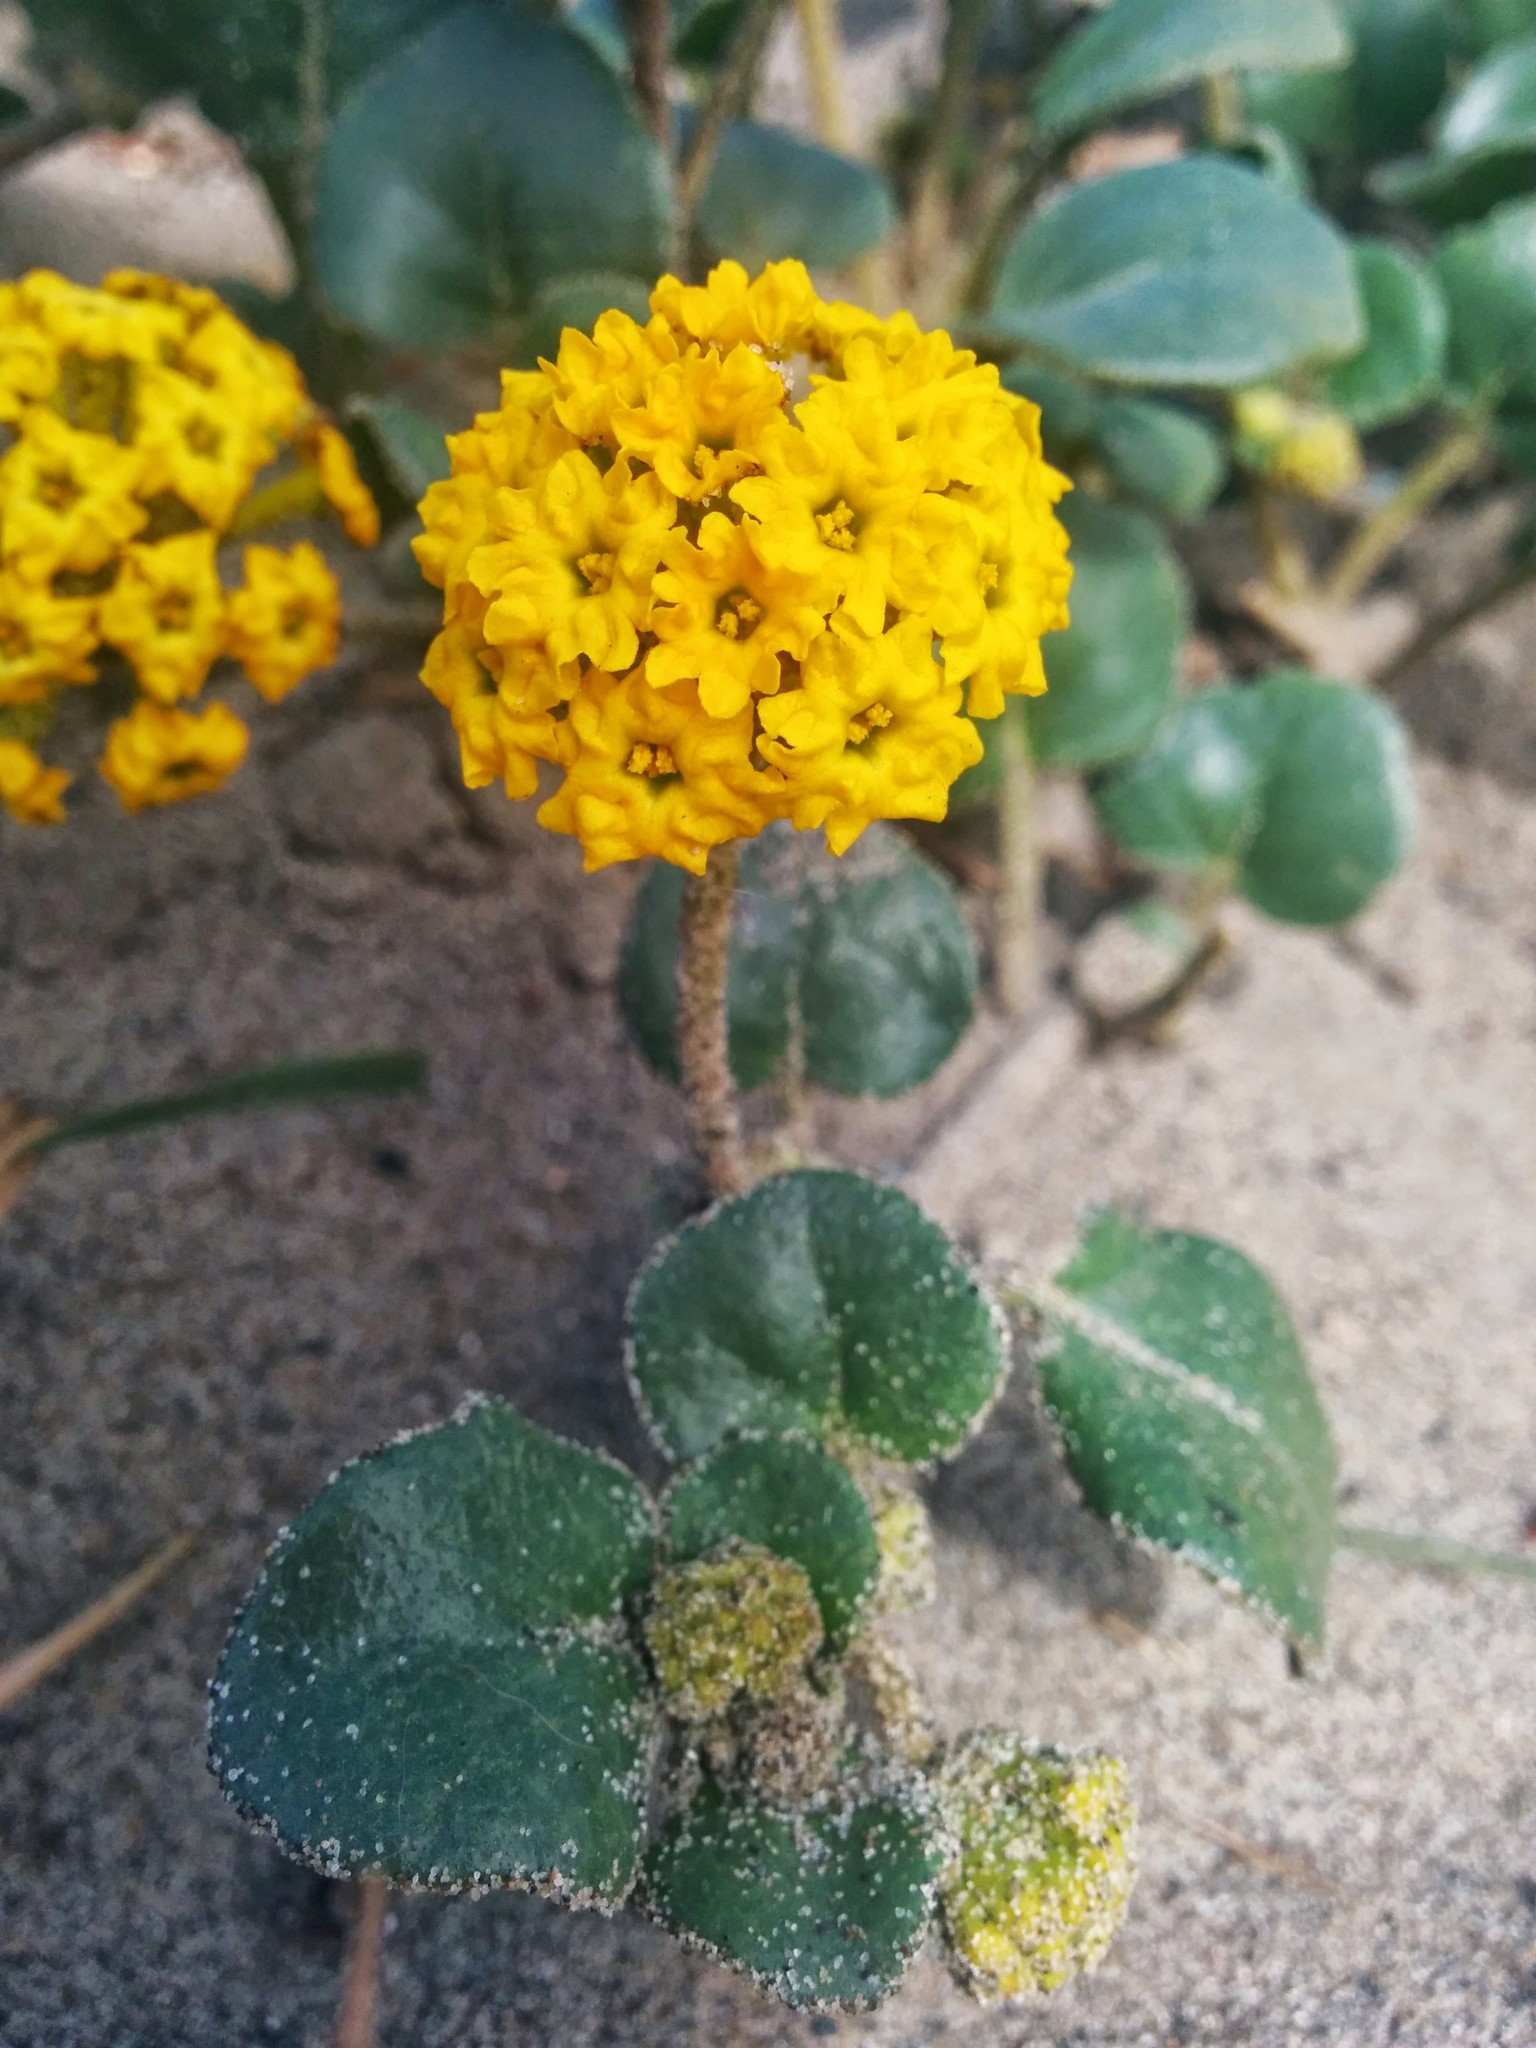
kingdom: Plantae
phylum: Tracheophyta
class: Magnoliopsida
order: Caryophyllales
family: Nyctaginaceae
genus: Abronia
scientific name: Abronia latifolia
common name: Yellow sand-verbena
